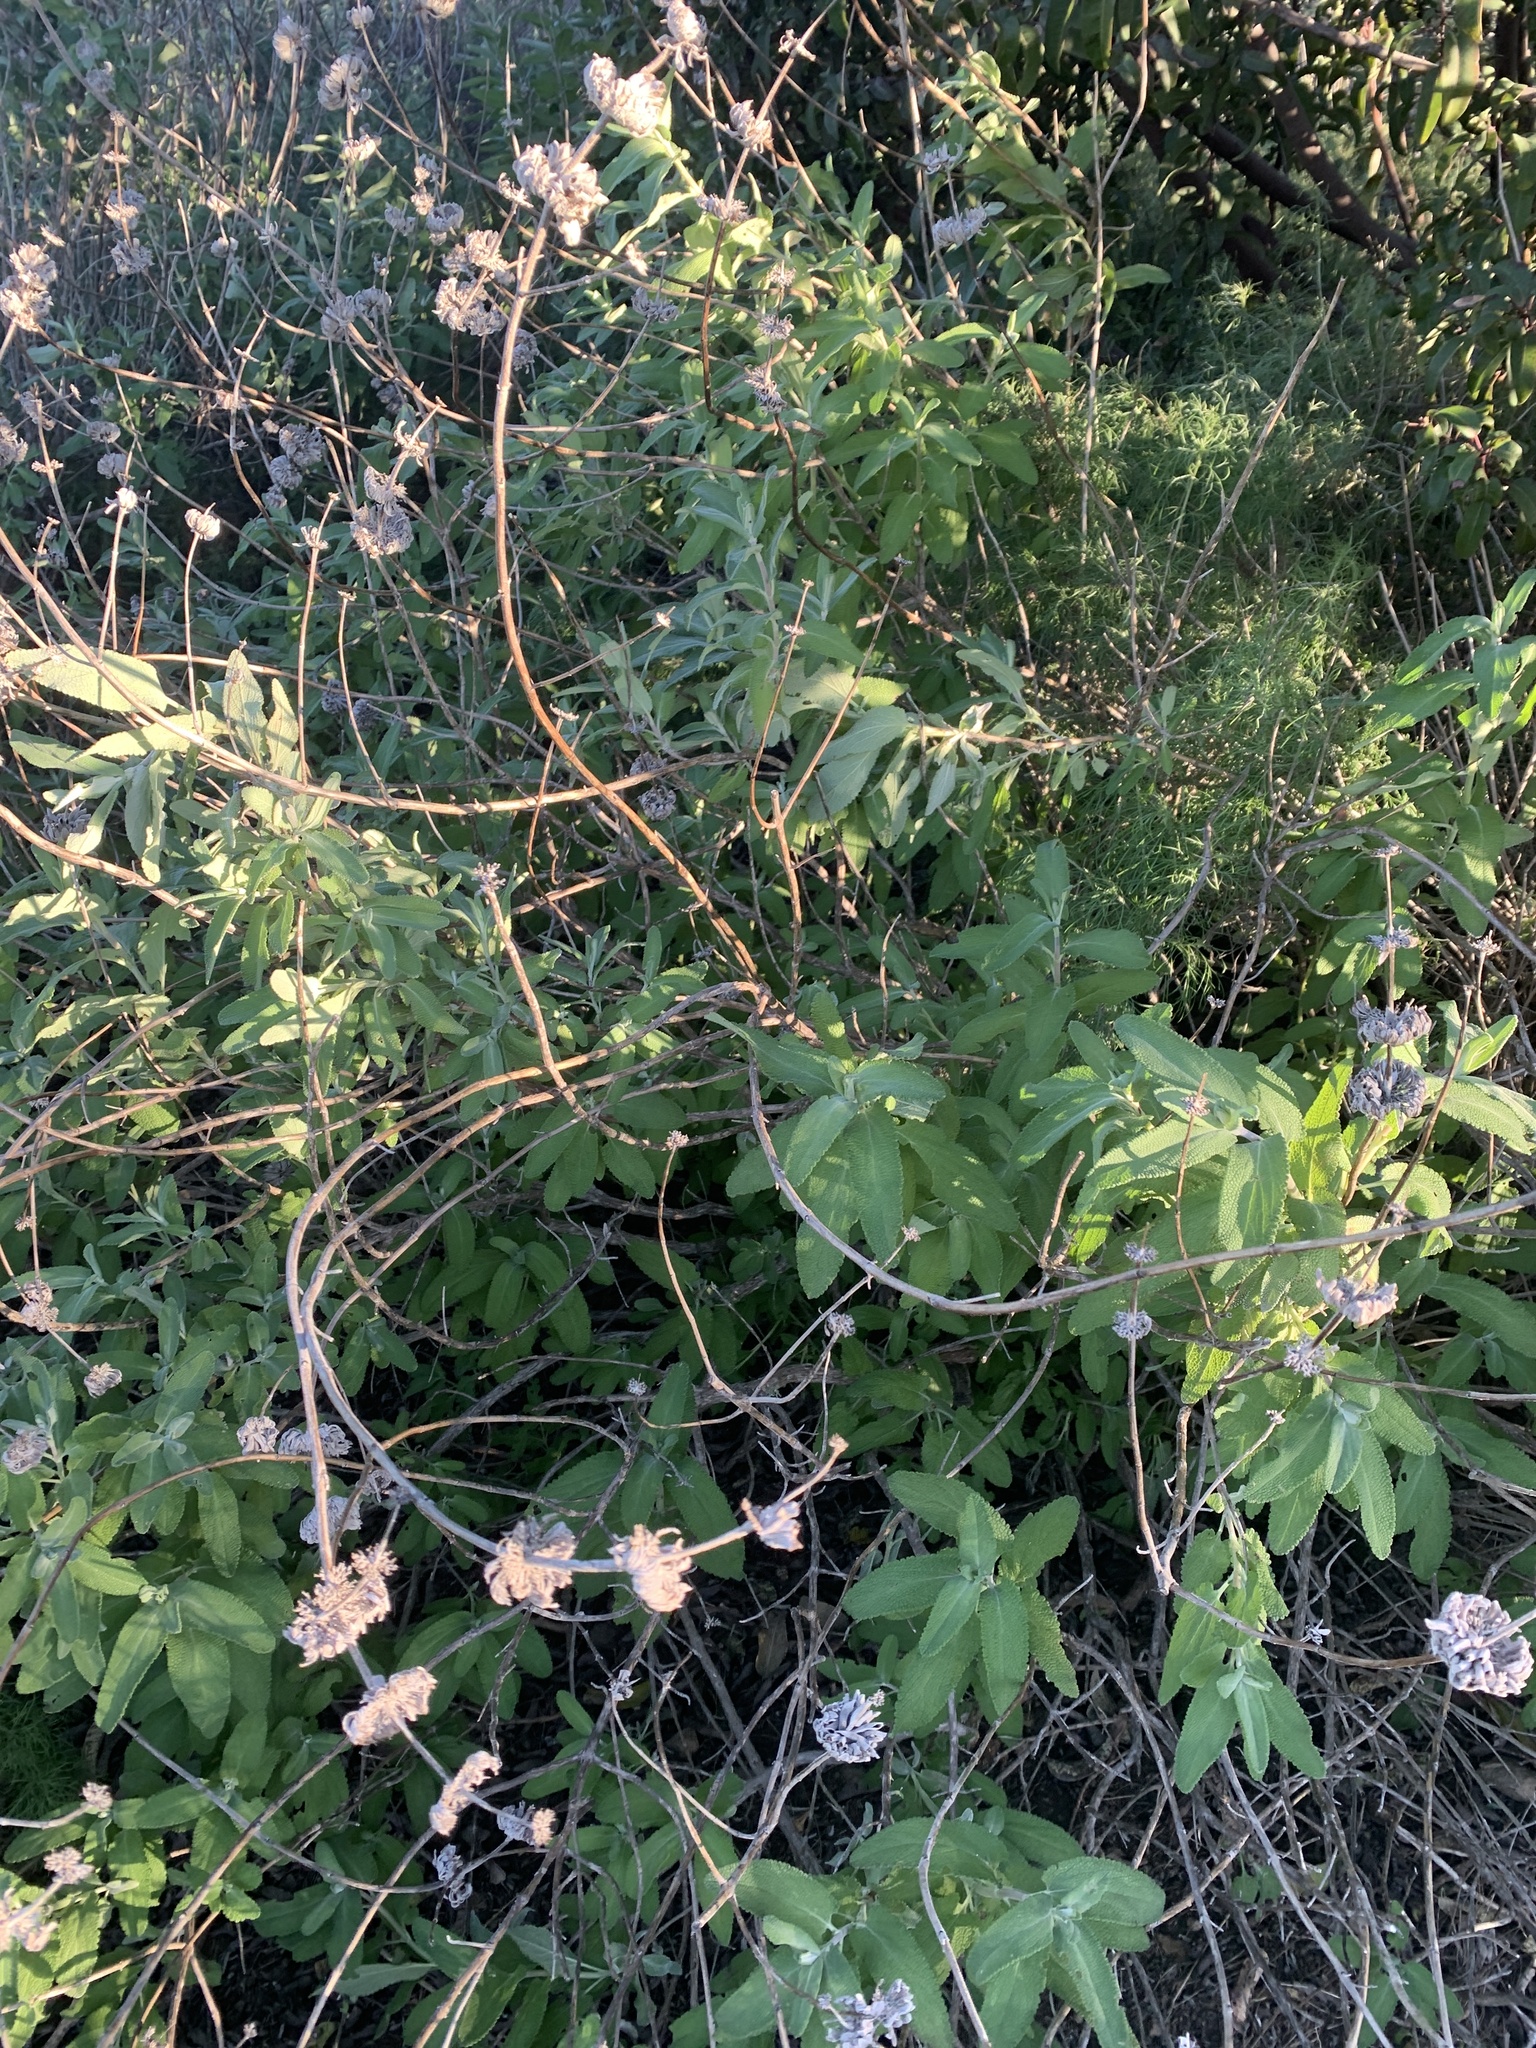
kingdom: Plantae
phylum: Tracheophyta
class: Magnoliopsida
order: Lamiales
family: Lamiaceae
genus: Salvia
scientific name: Salvia leucophylla
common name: Purple sage
